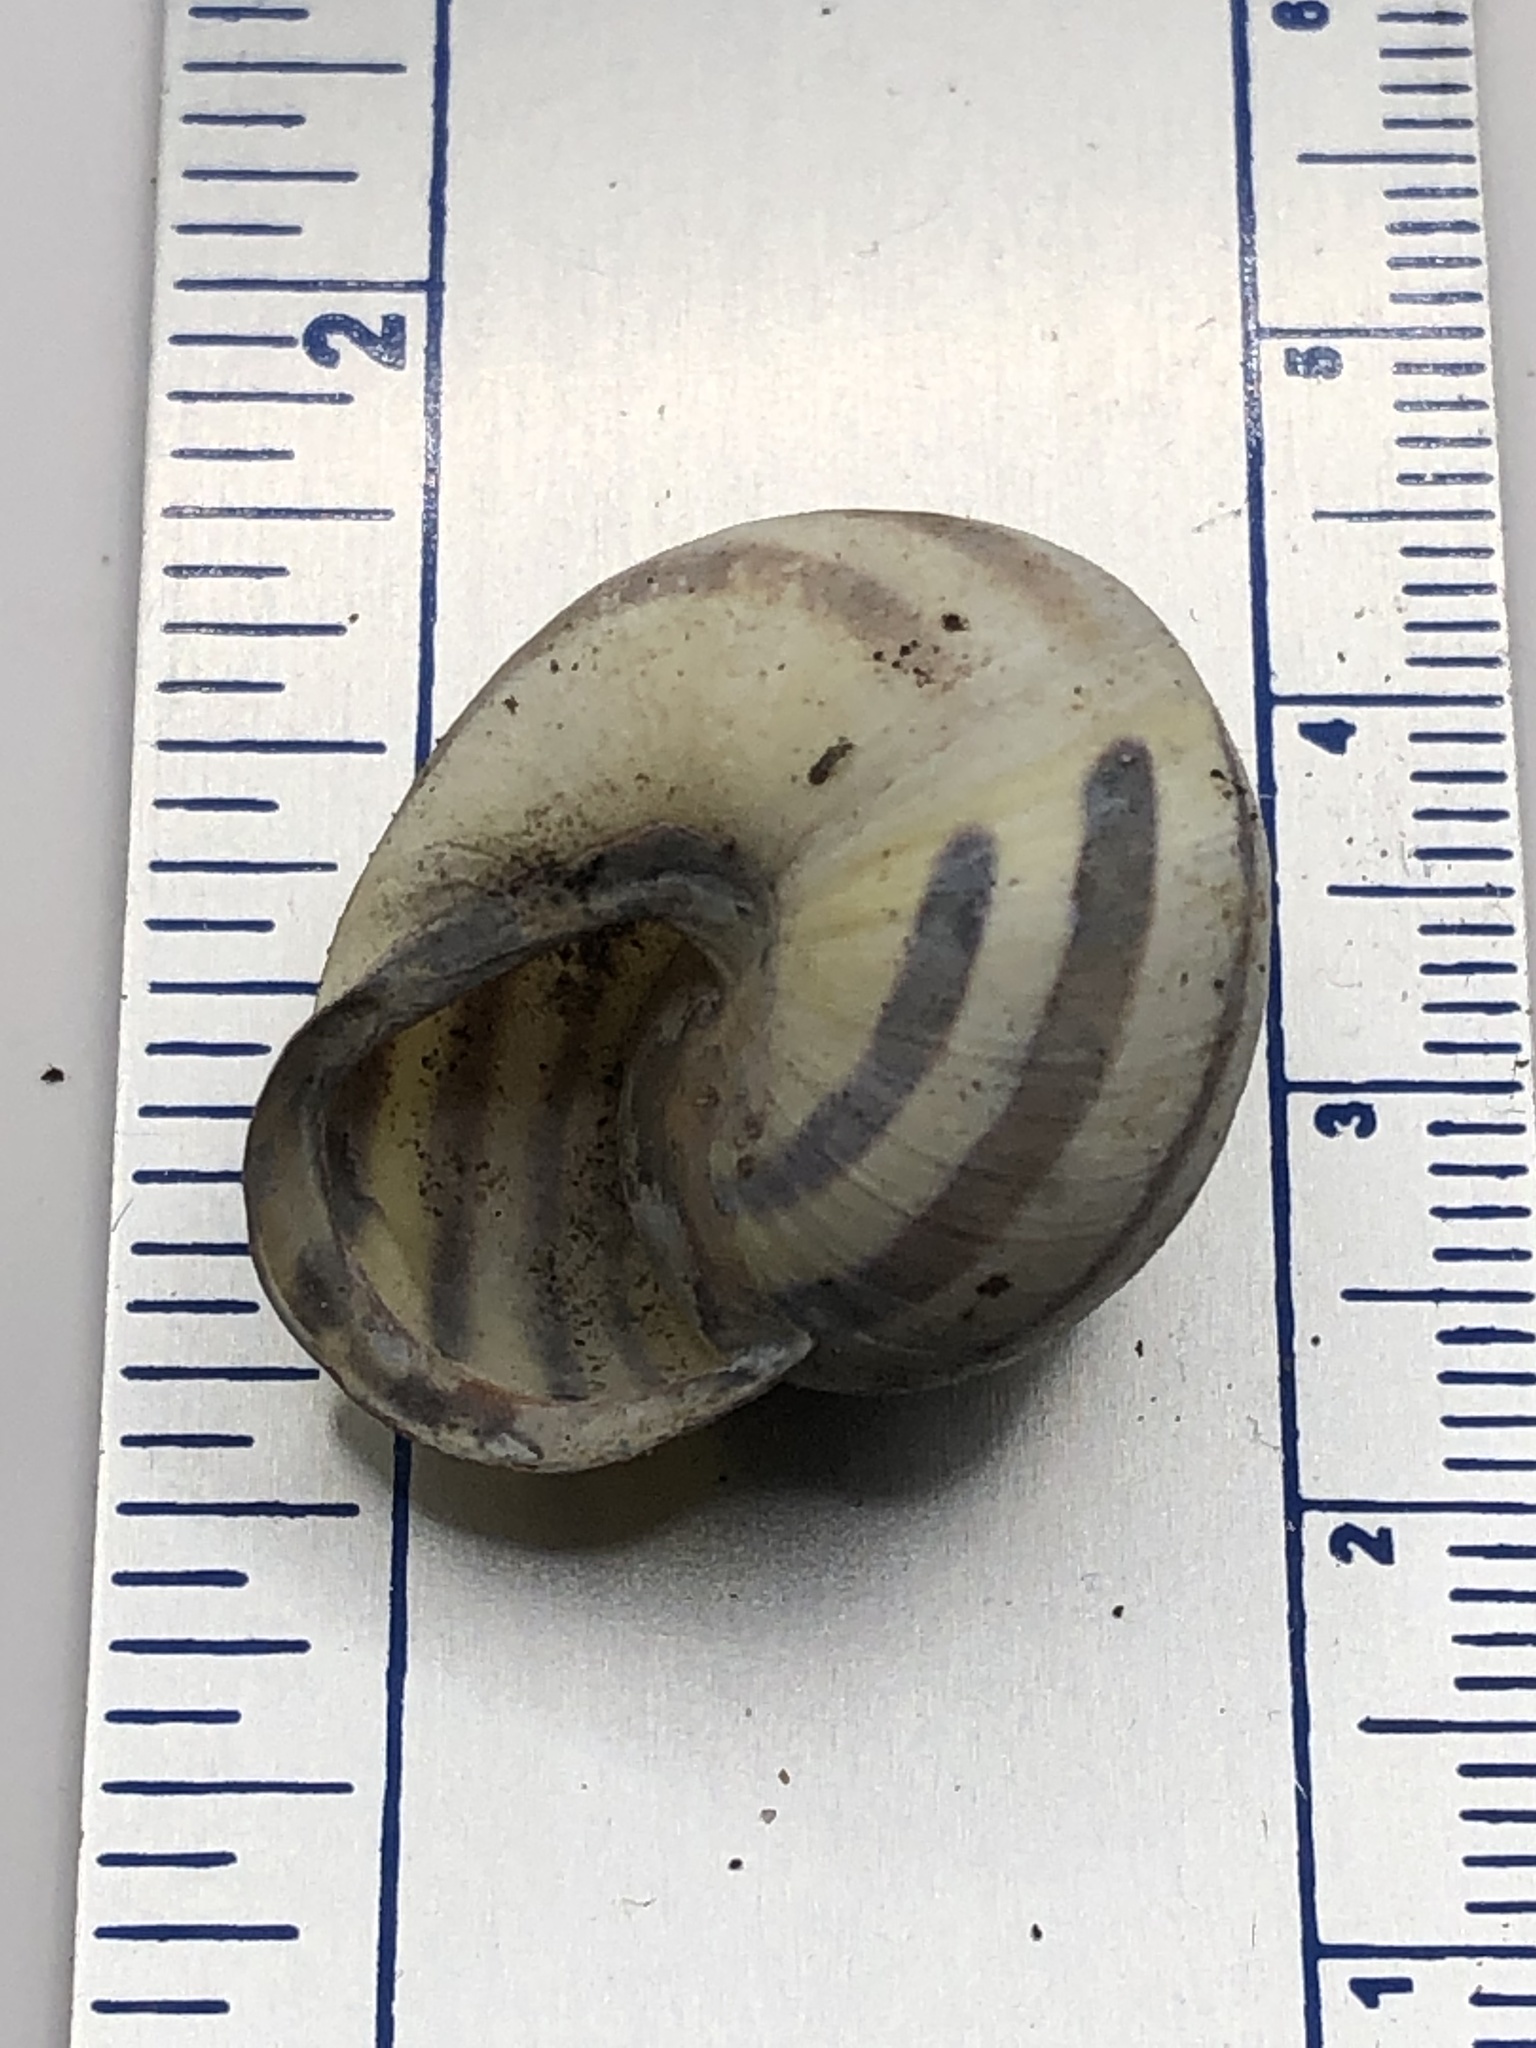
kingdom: Animalia
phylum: Mollusca
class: Gastropoda
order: Stylommatophora
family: Helicidae
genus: Cepaea
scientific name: Cepaea nemoralis
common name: Grovesnail
